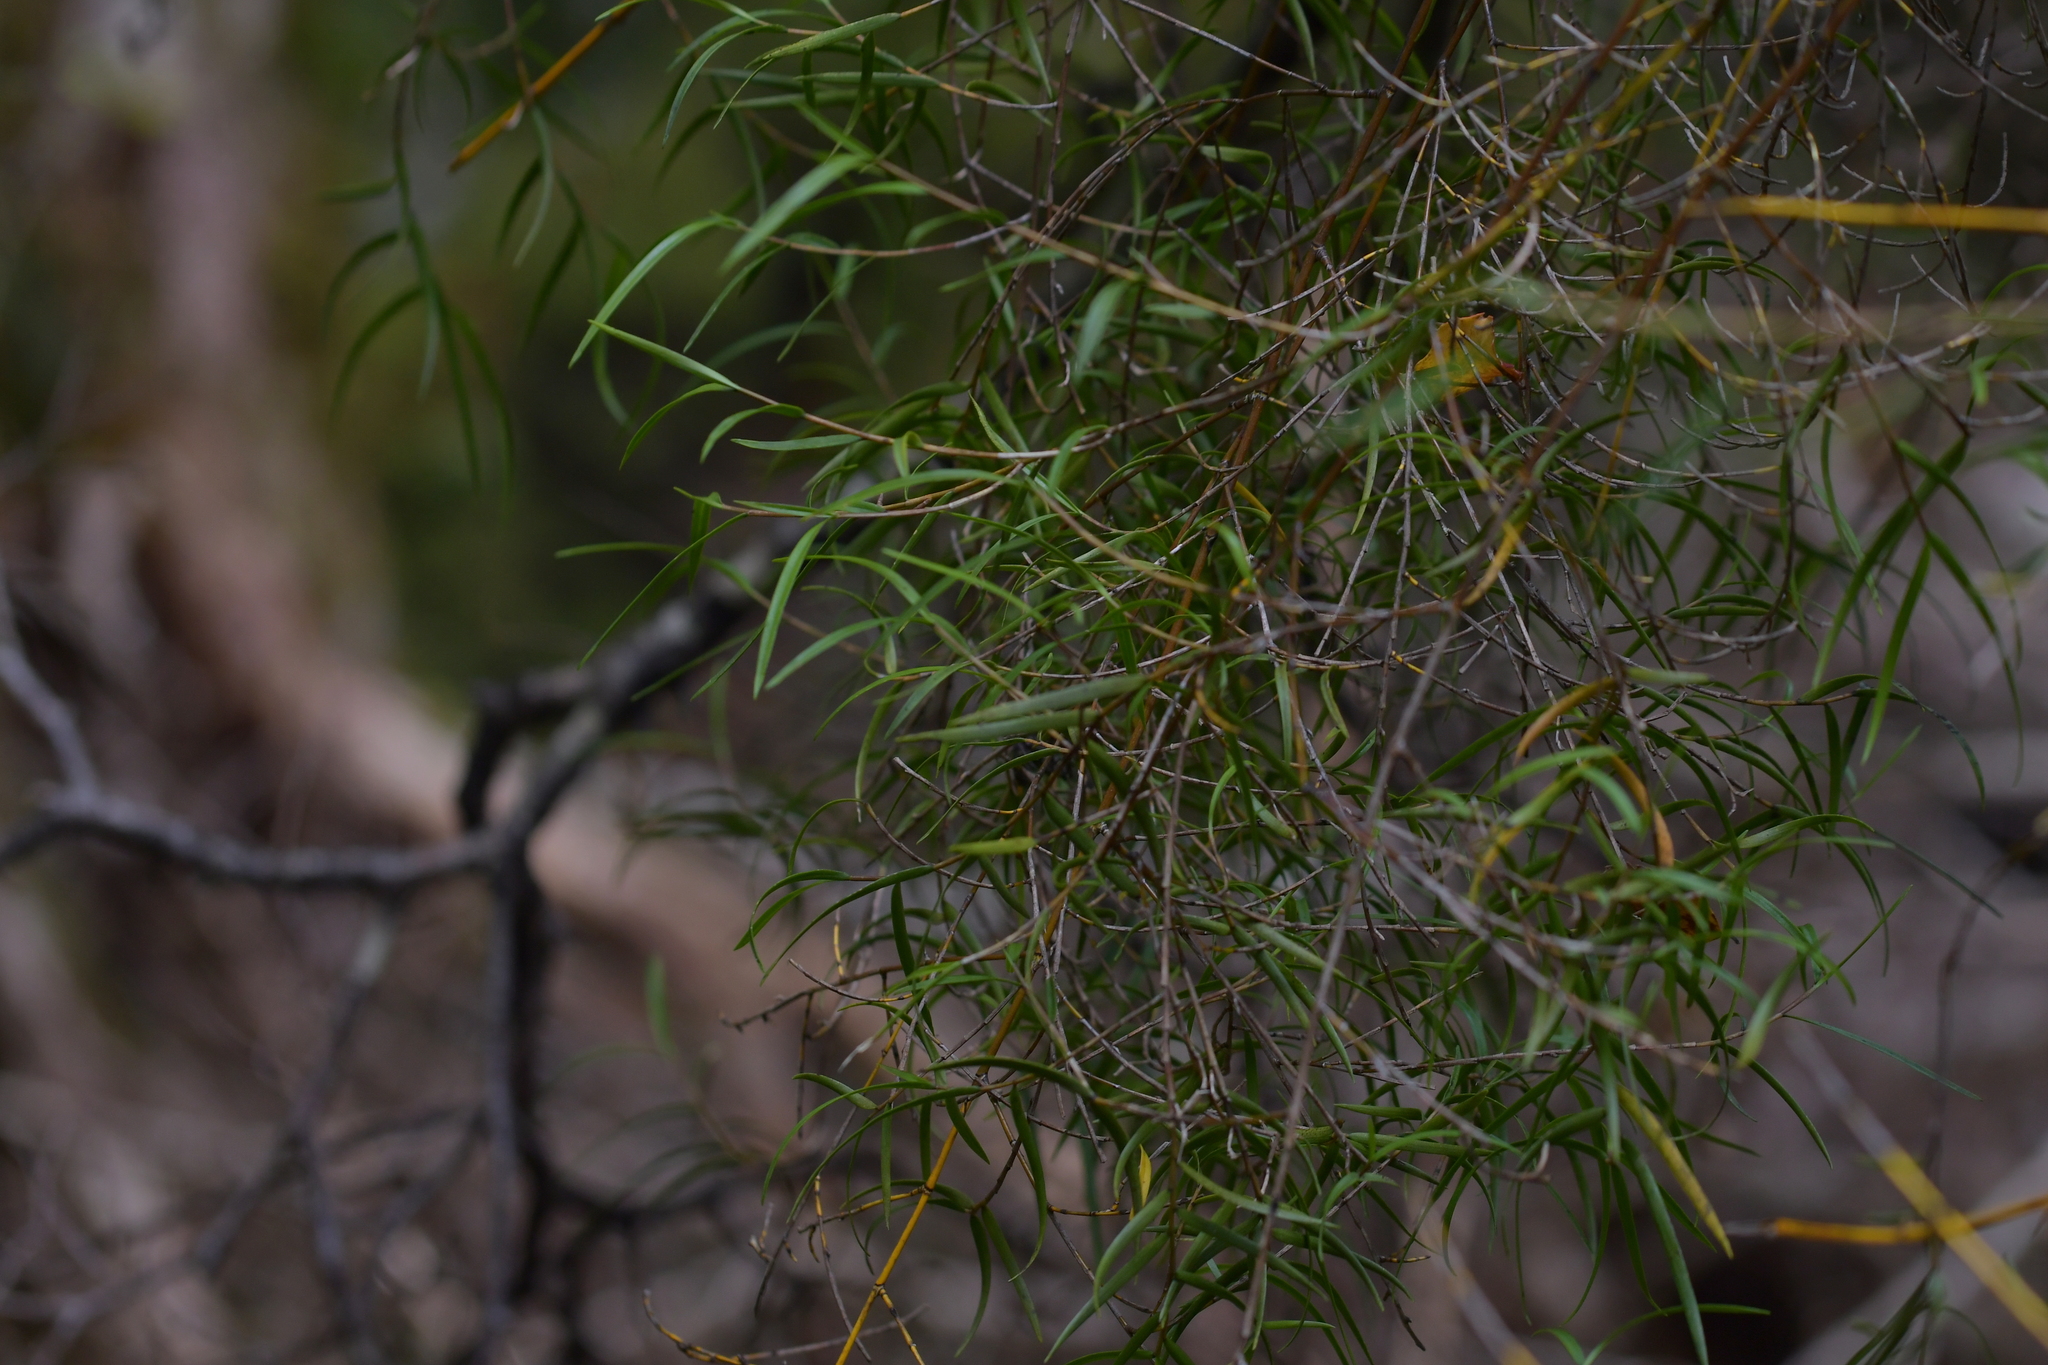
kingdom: Plantae
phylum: Tracheophyta
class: Liliopsida
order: Asparagales
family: Orchidaceae
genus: Dendrobium
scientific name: Dendrobium cunninghamii
